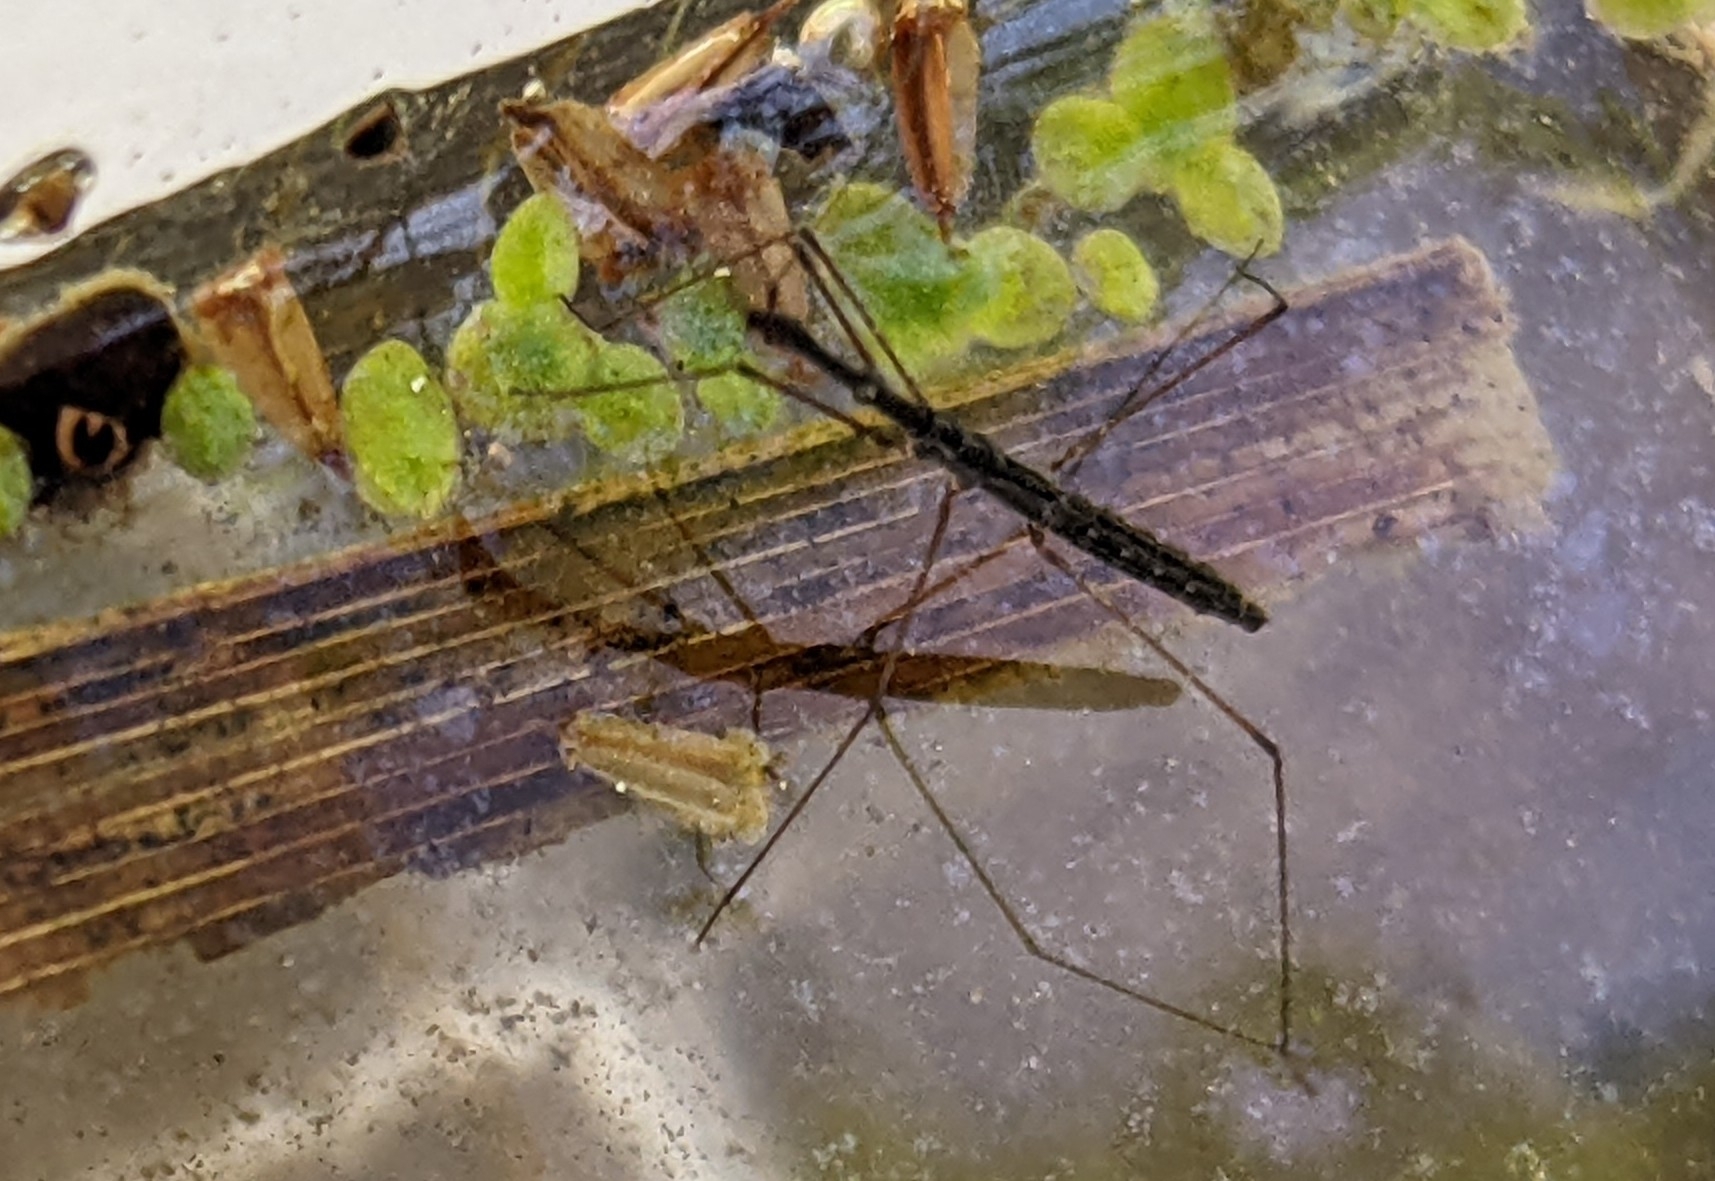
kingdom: Animalia
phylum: Arthropoda
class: Insecta
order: Hemiptera
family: Hydrometridae
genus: Hydrometra
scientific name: Hydrometra stagnorum
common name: Water measurer
